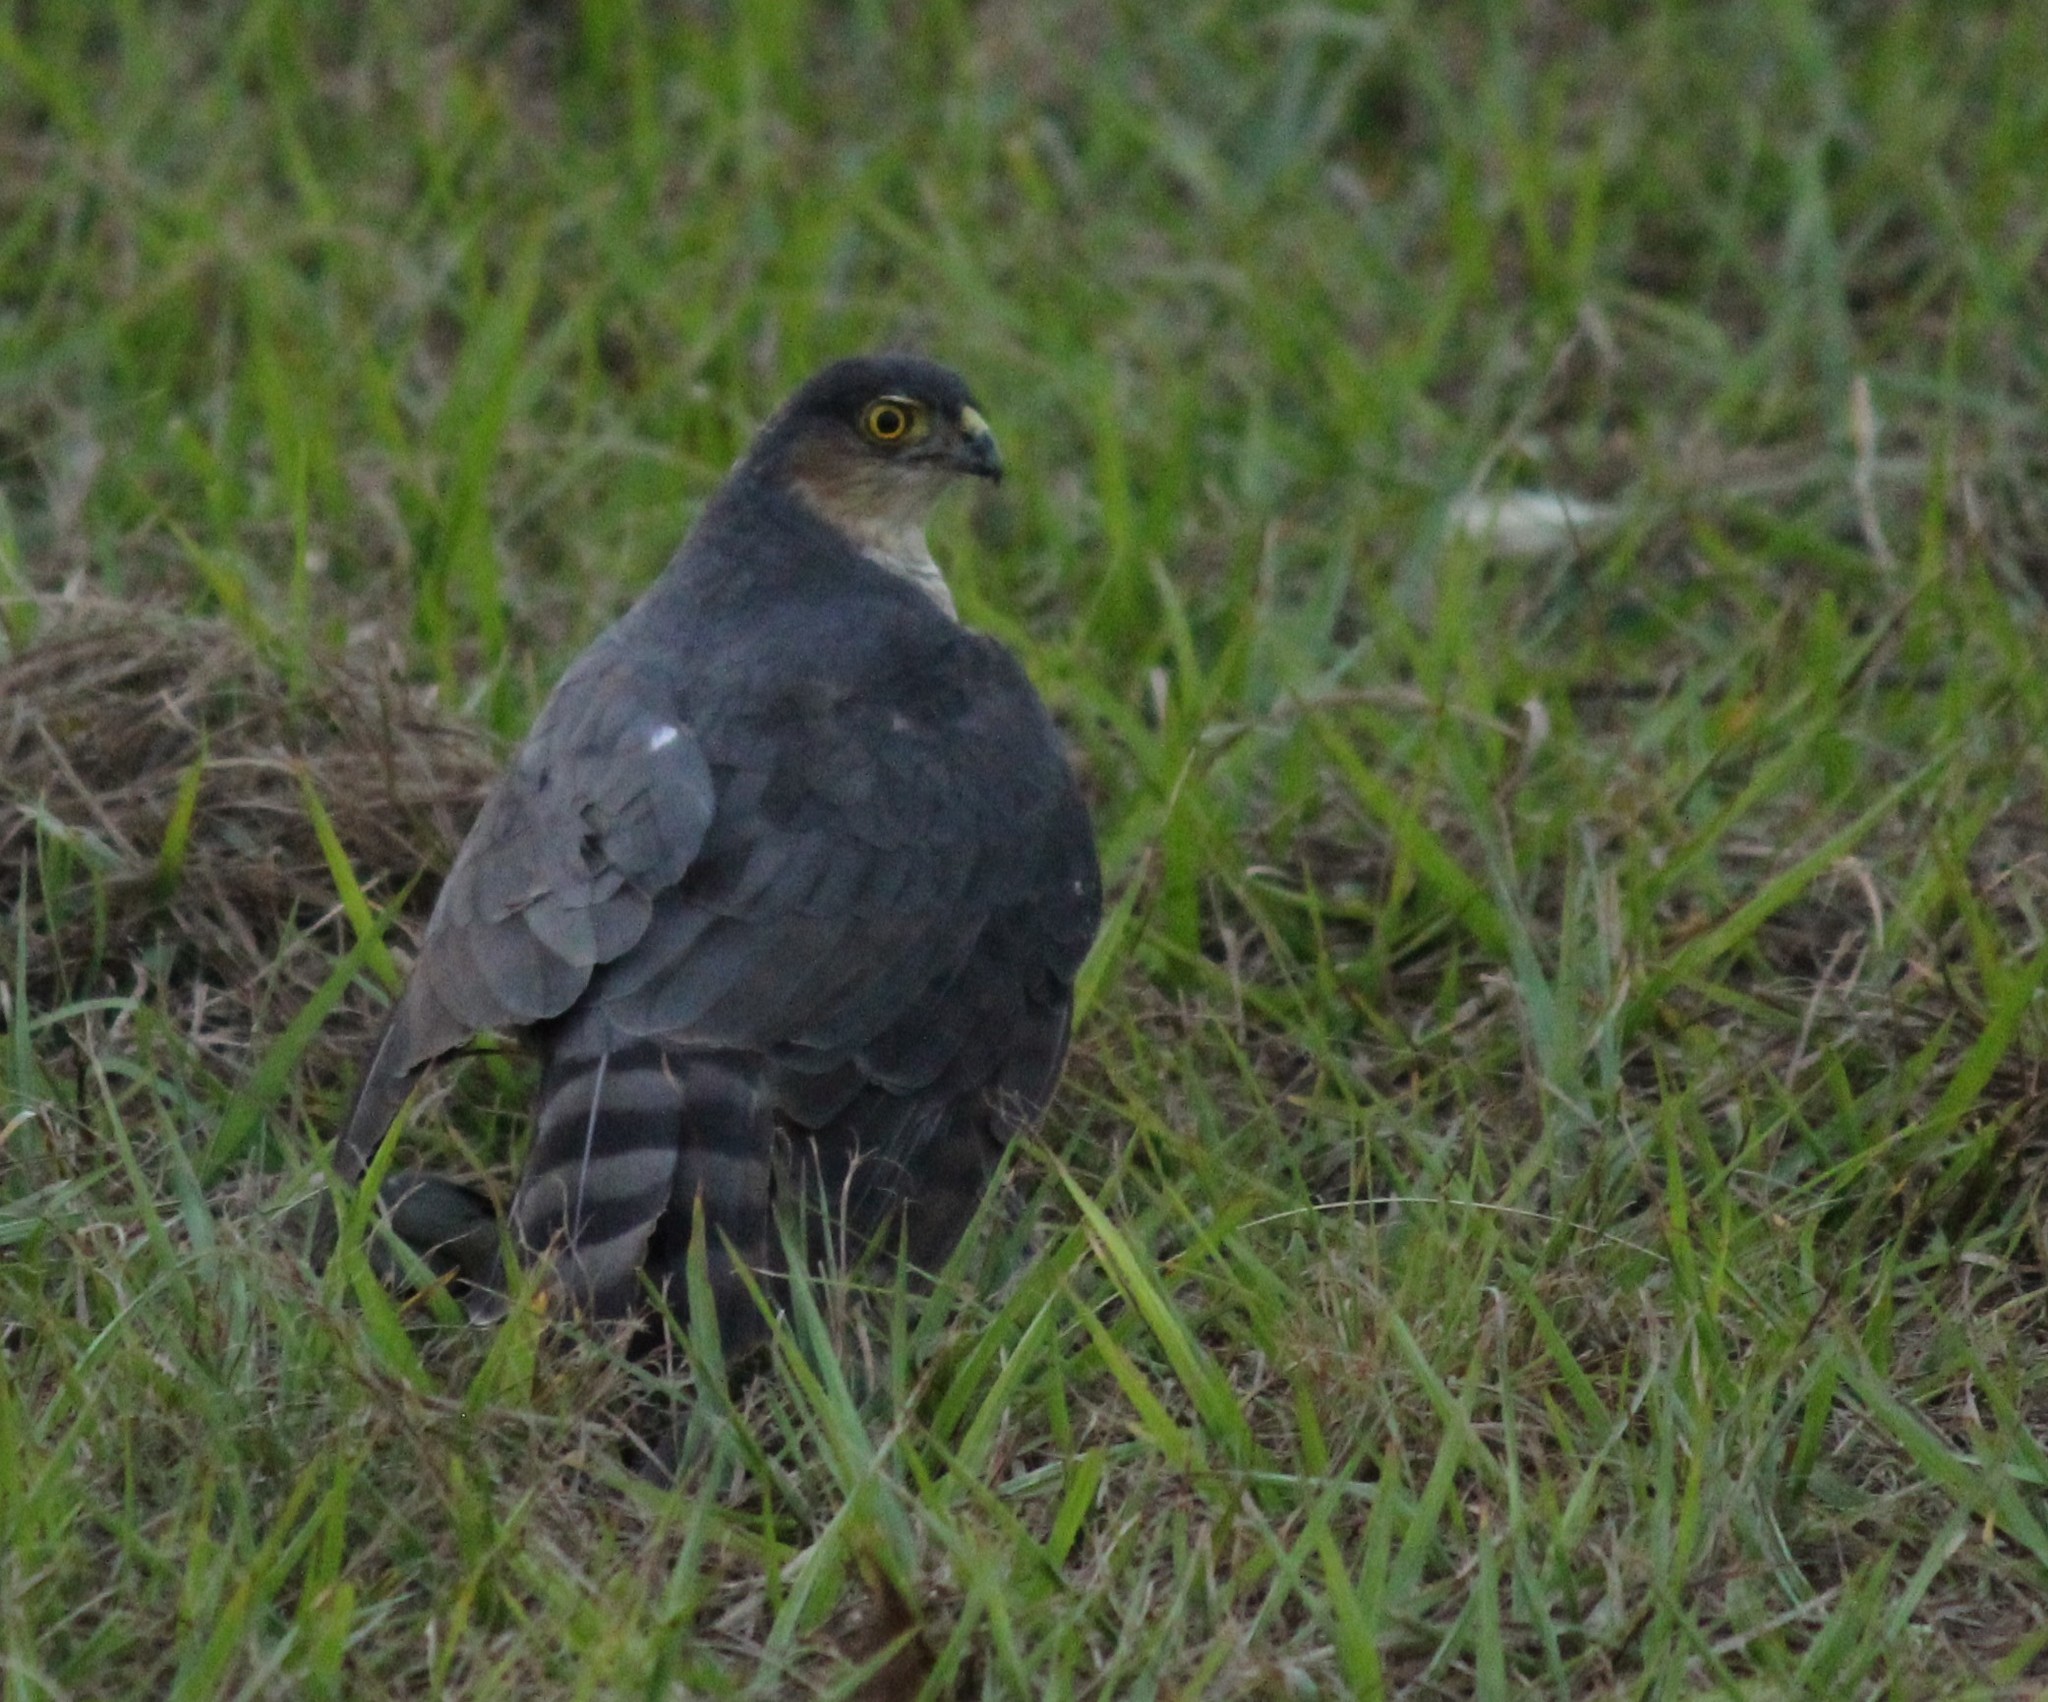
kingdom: Animalia
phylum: Chordata
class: Aves
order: Accipitriformes
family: Accipitridae
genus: Accipiter
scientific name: Accipiter striatus
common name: Sharp-shinned hawk
